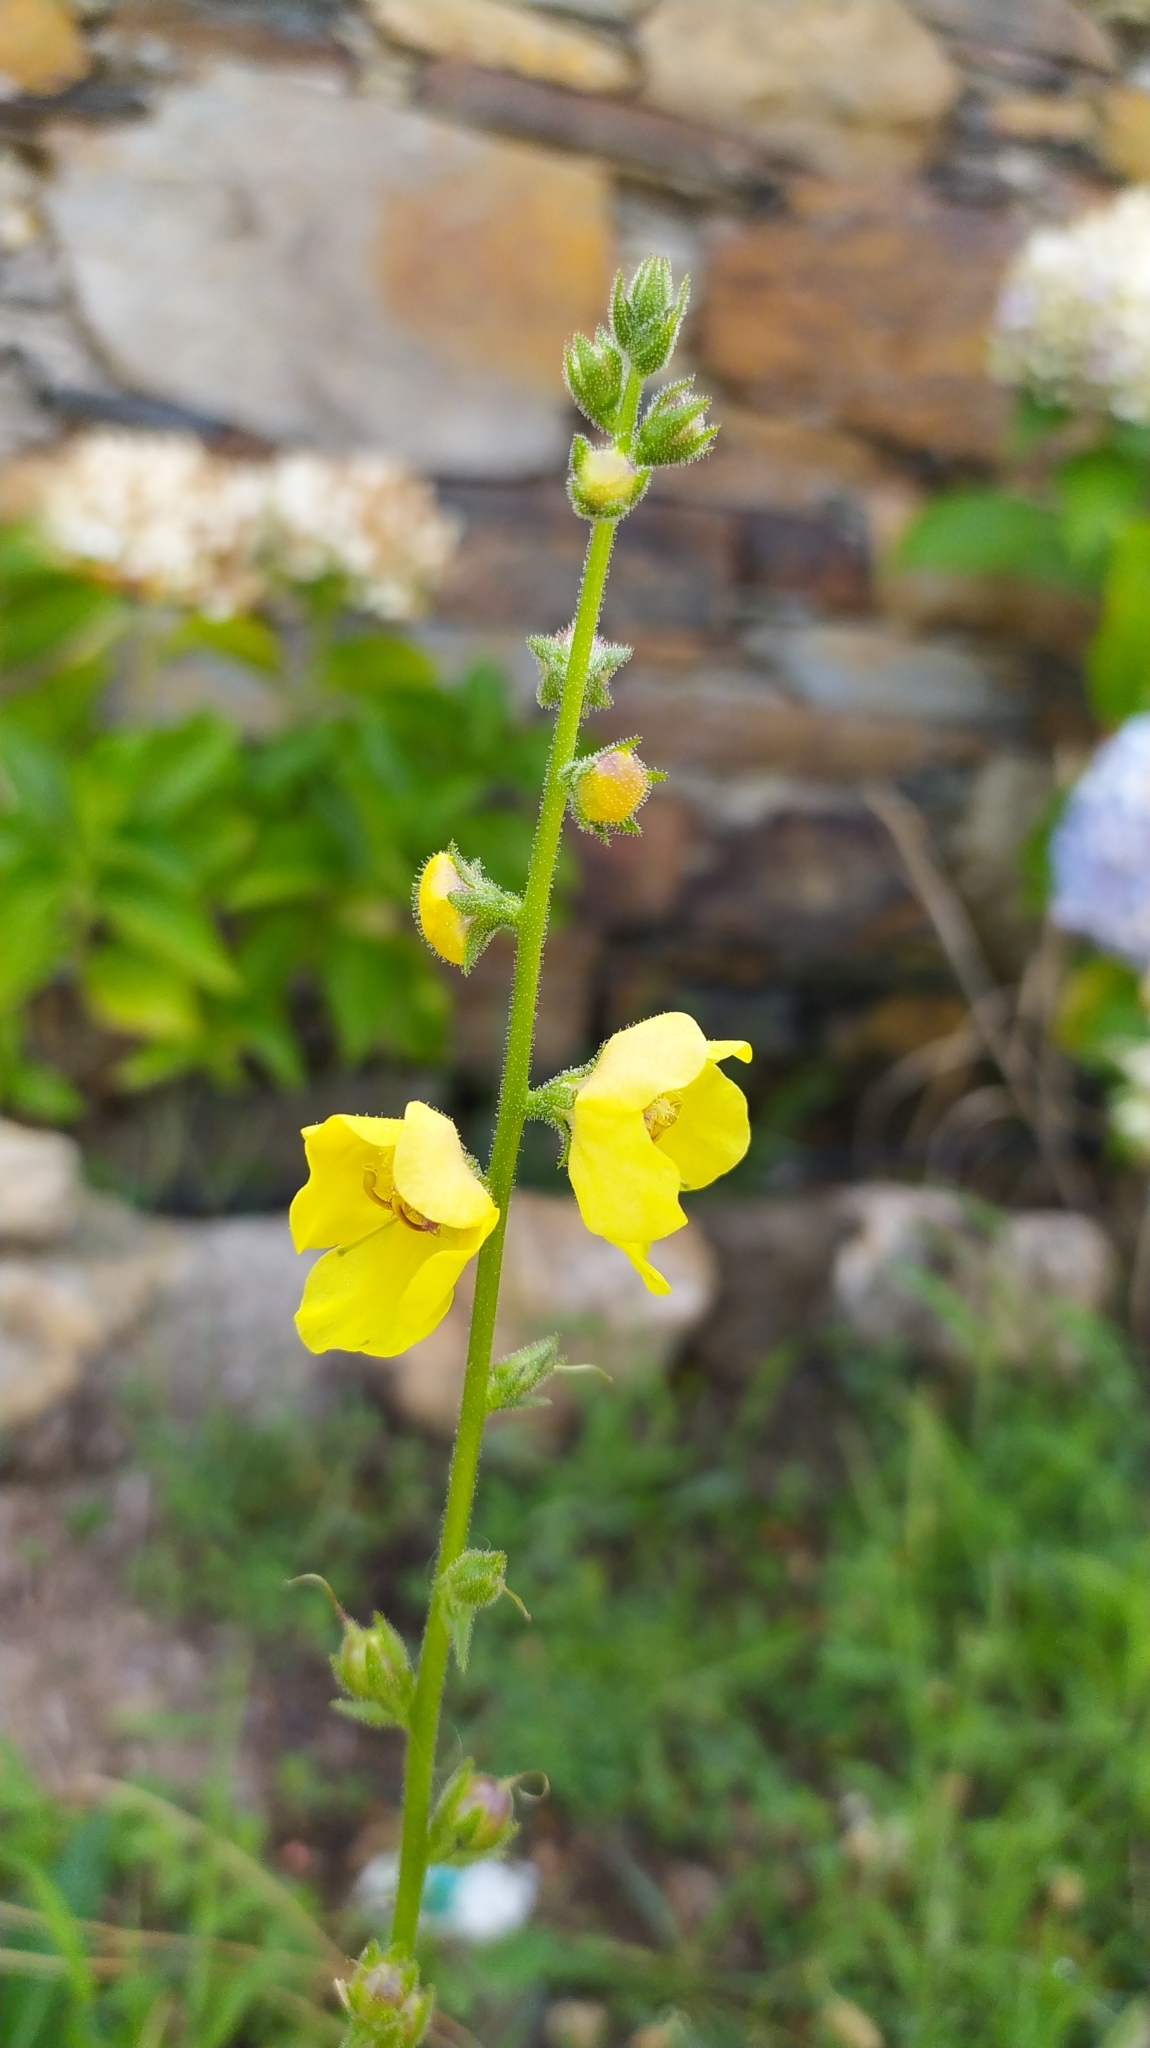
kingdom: Plantae
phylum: Tracheophyta
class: Magnoliopsida
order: Lamiales
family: Scrophulariaceae
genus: Verbascum
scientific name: Verbascum virgatum
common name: Twiggy mullein
